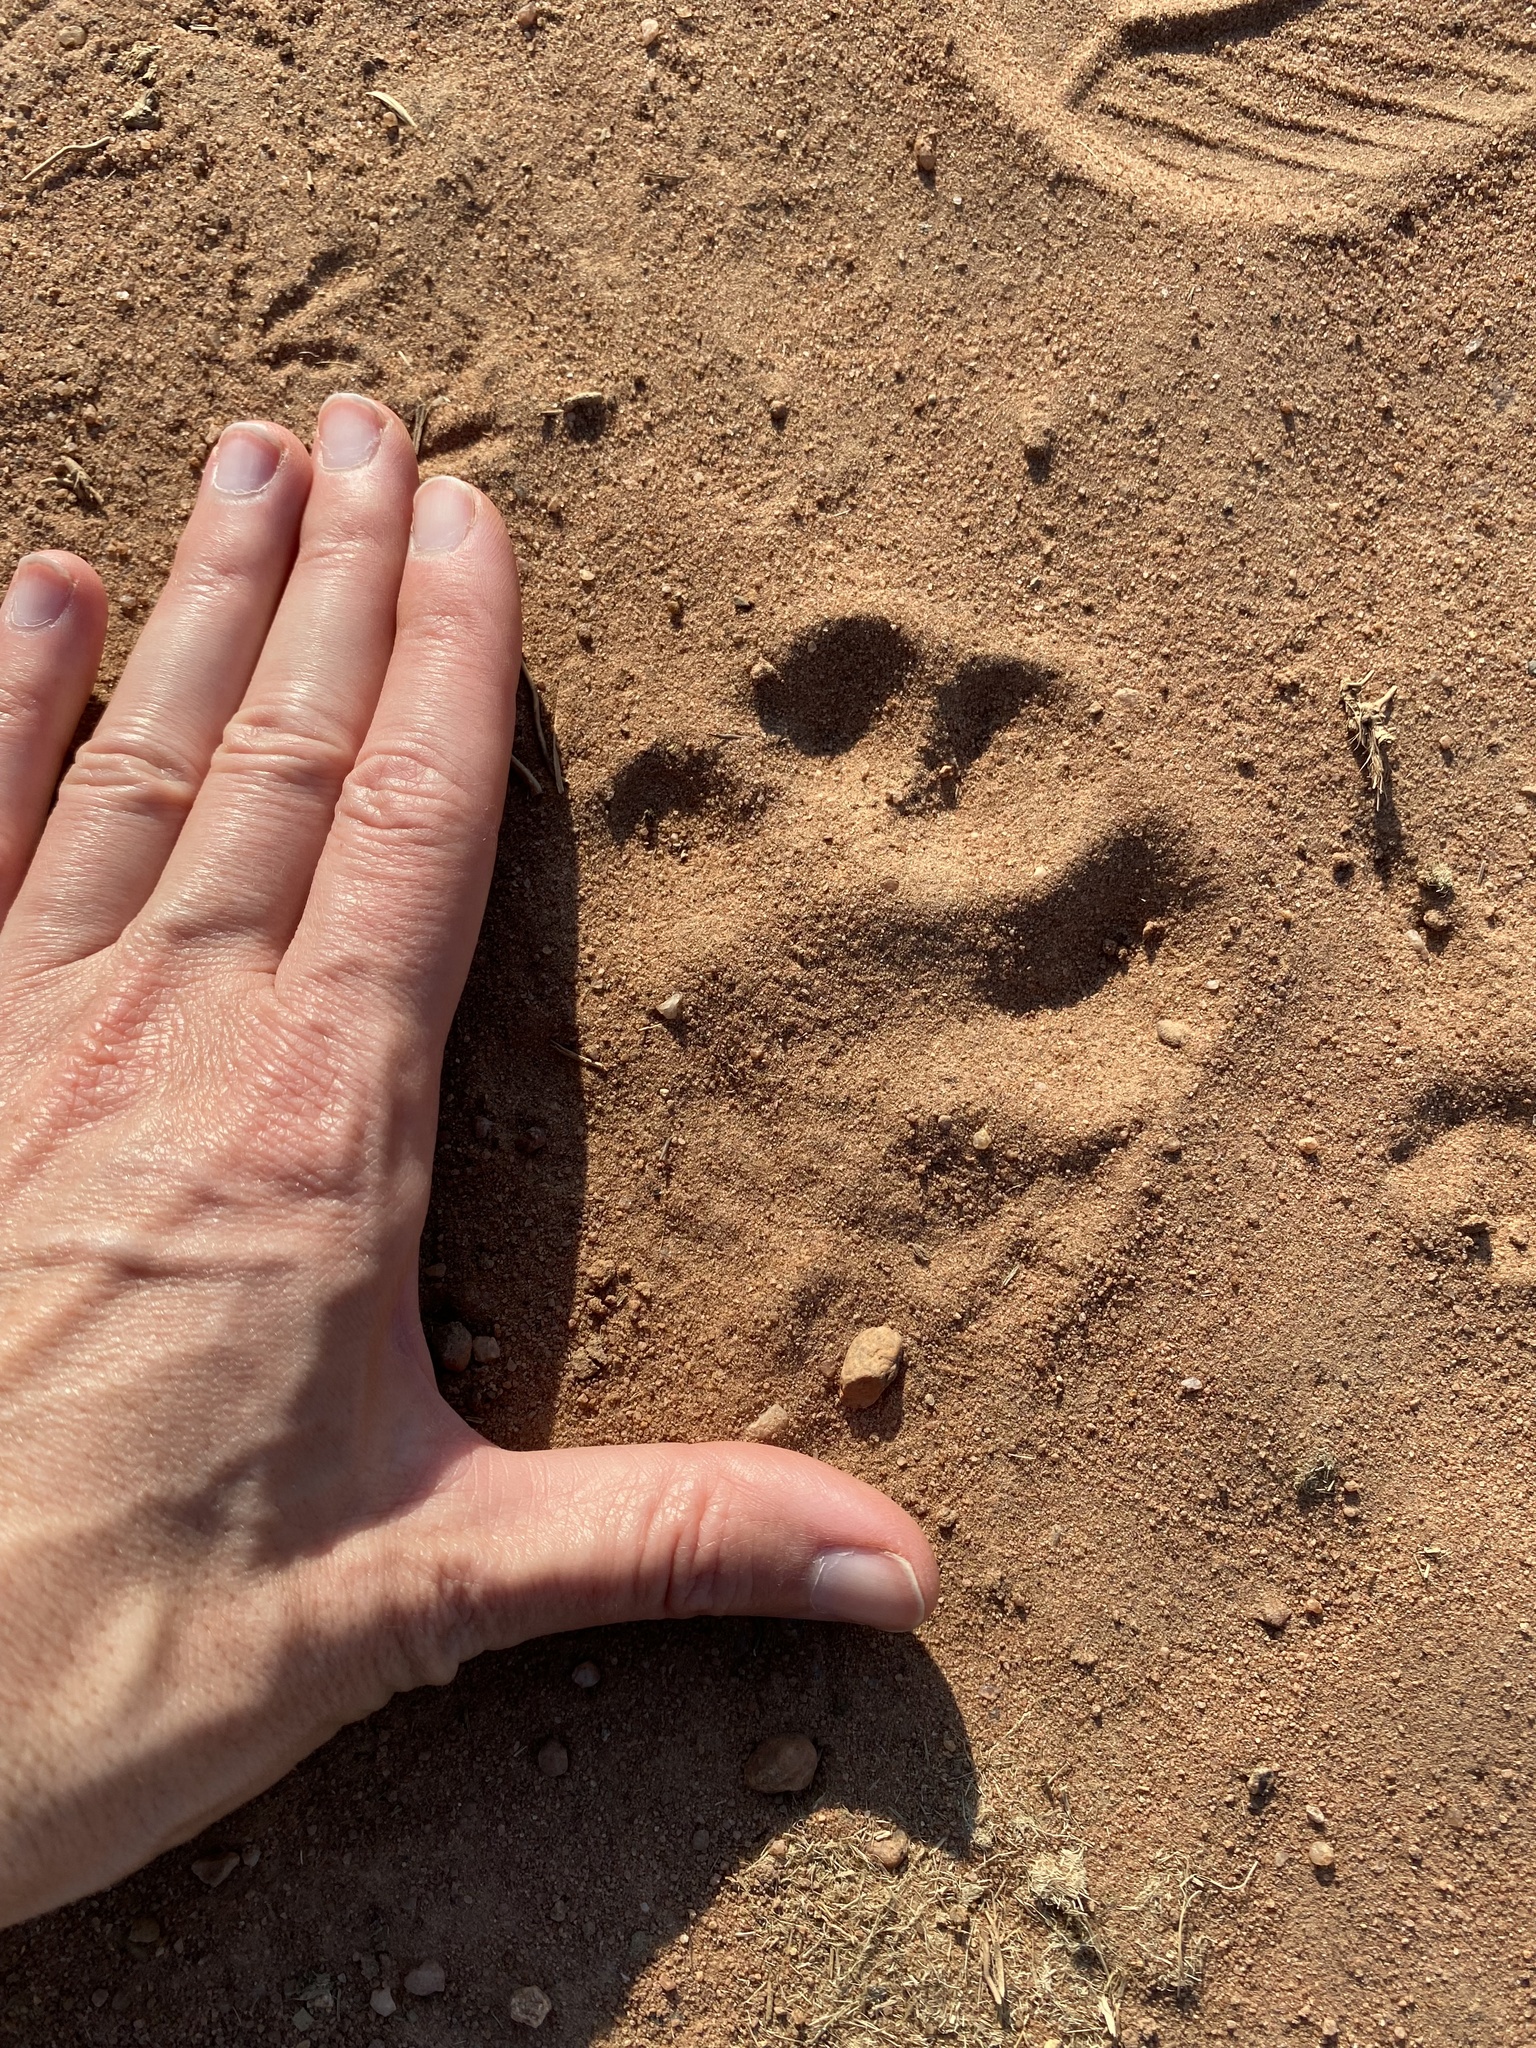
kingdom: Animalia
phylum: Chordata
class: Mammalia
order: Carnivora
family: Mustelidae
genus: Aonyx
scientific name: Aonyx capensis
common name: African clawless otter
